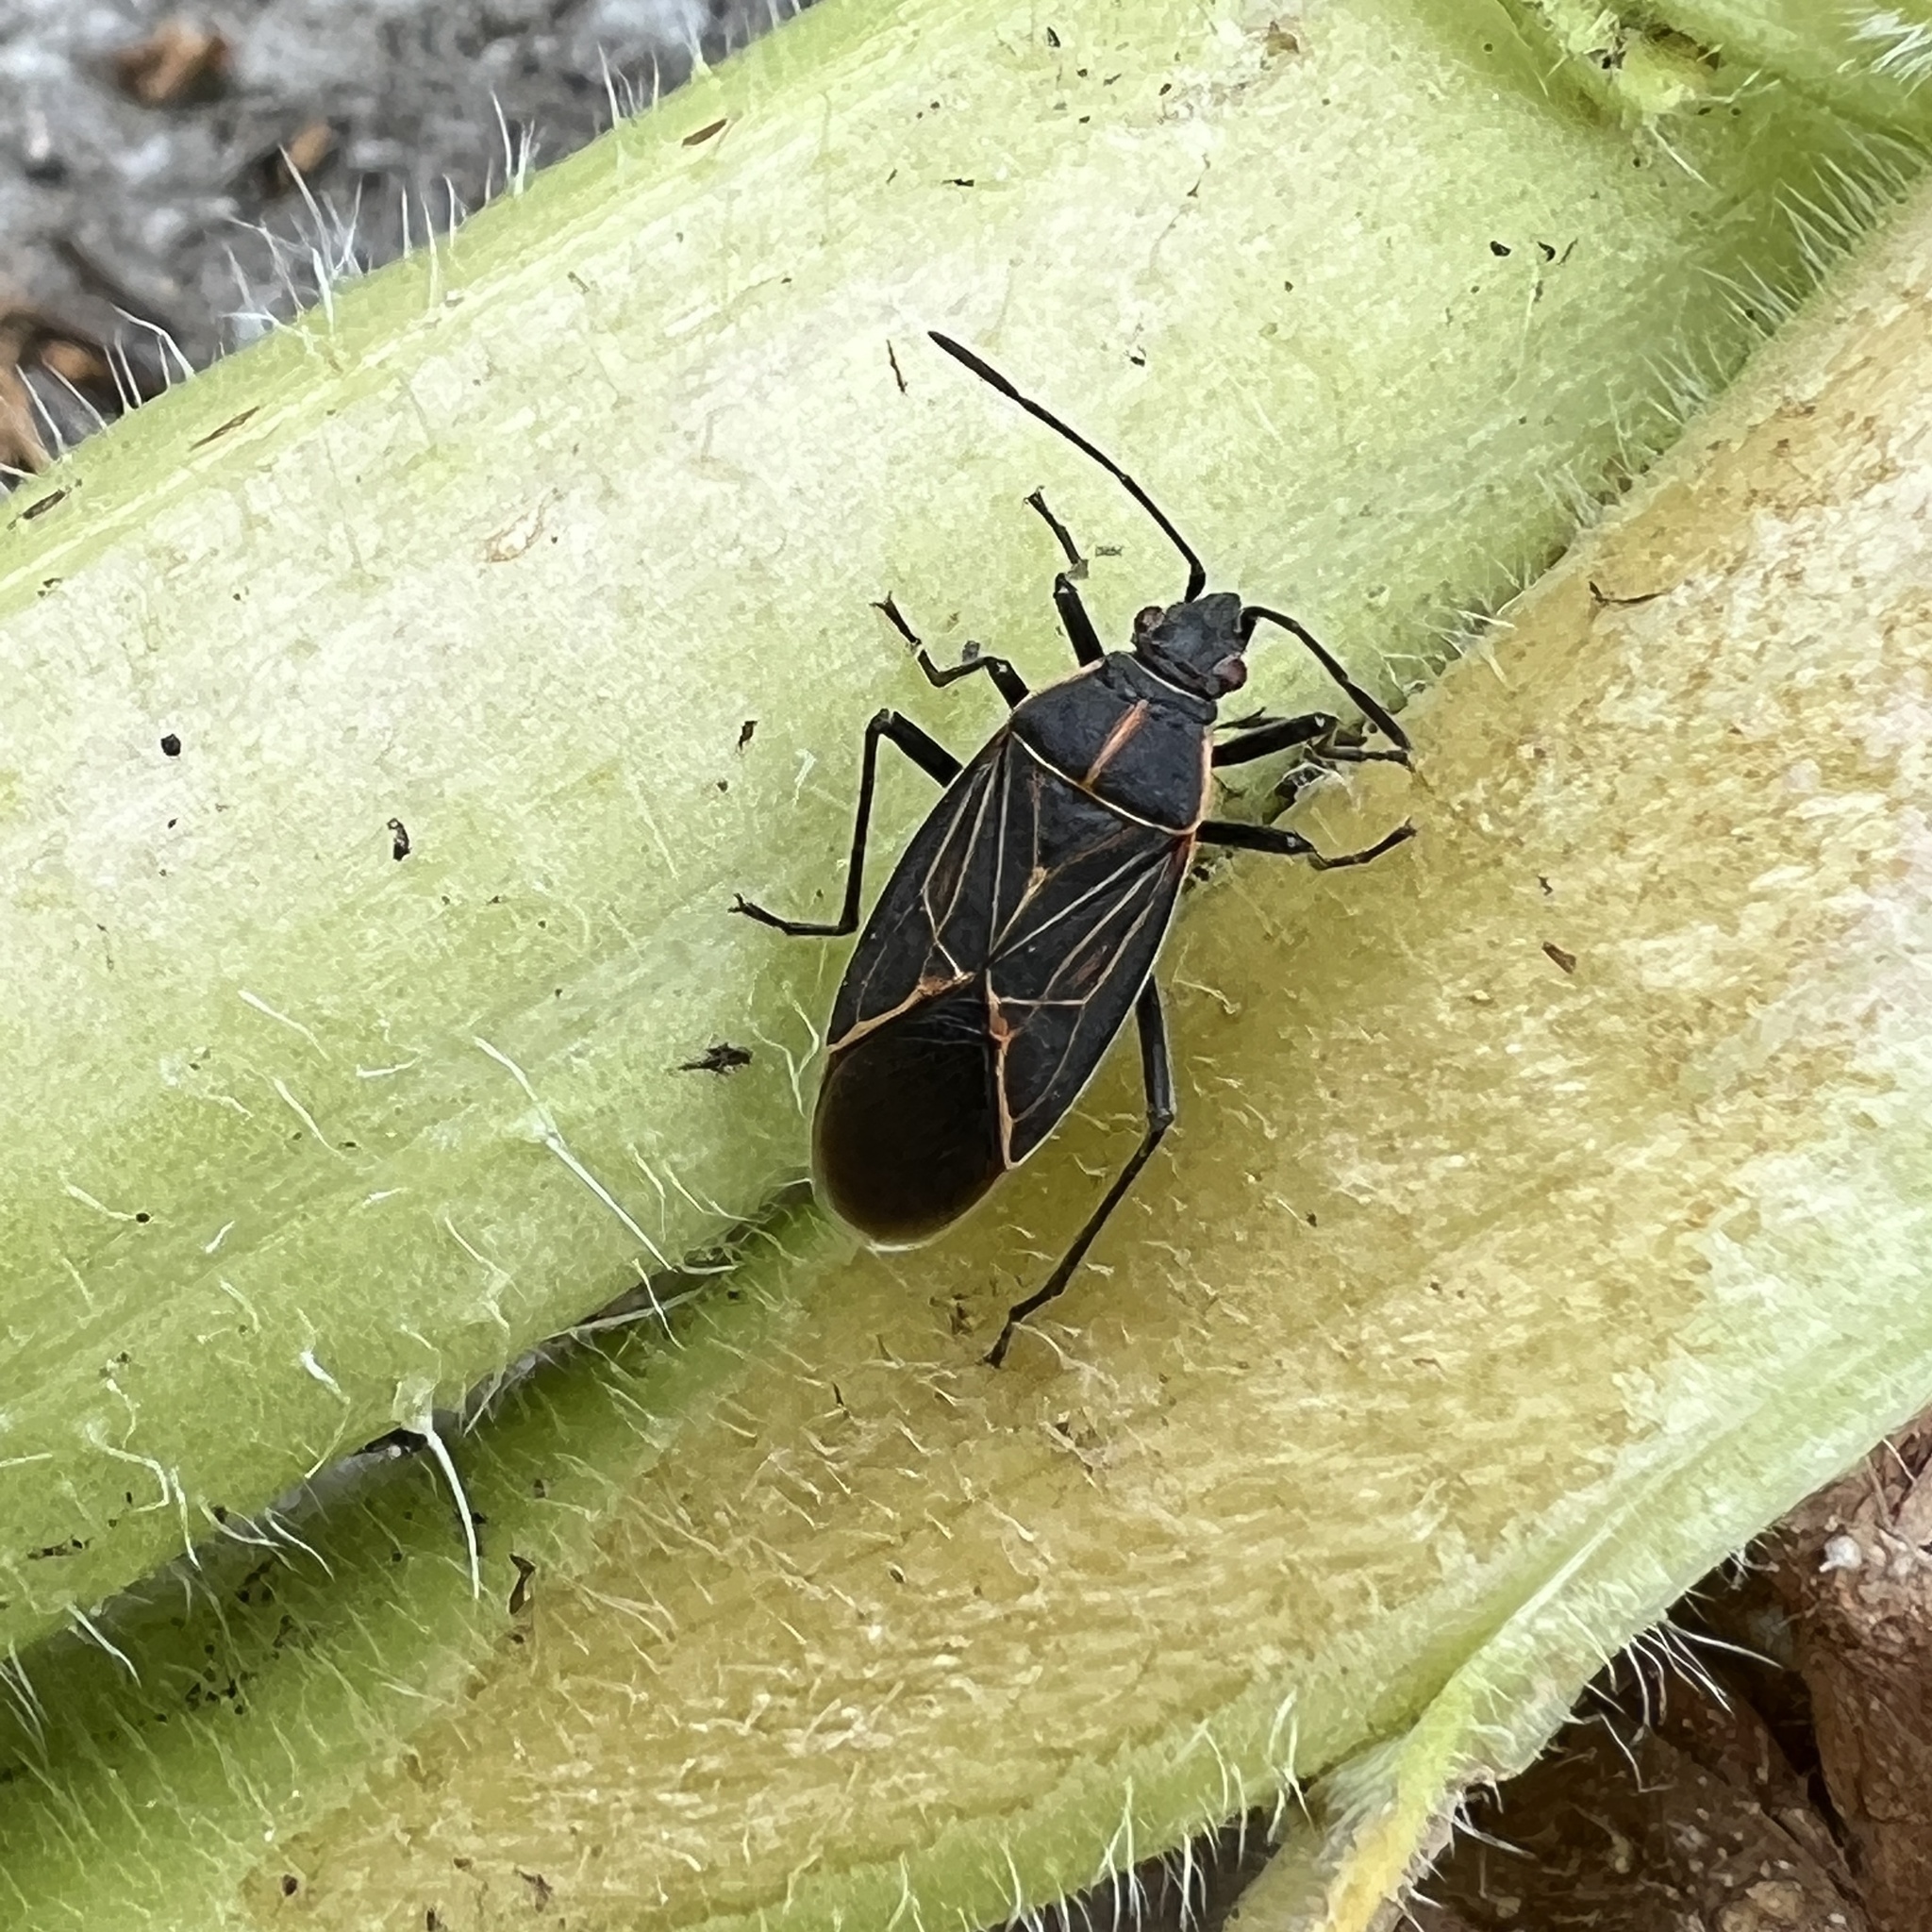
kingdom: Animalia
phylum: Arthropoda
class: Insecta
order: Hemiptera
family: Rhopalidae
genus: Boisea
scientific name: Boisea rubrolineata
